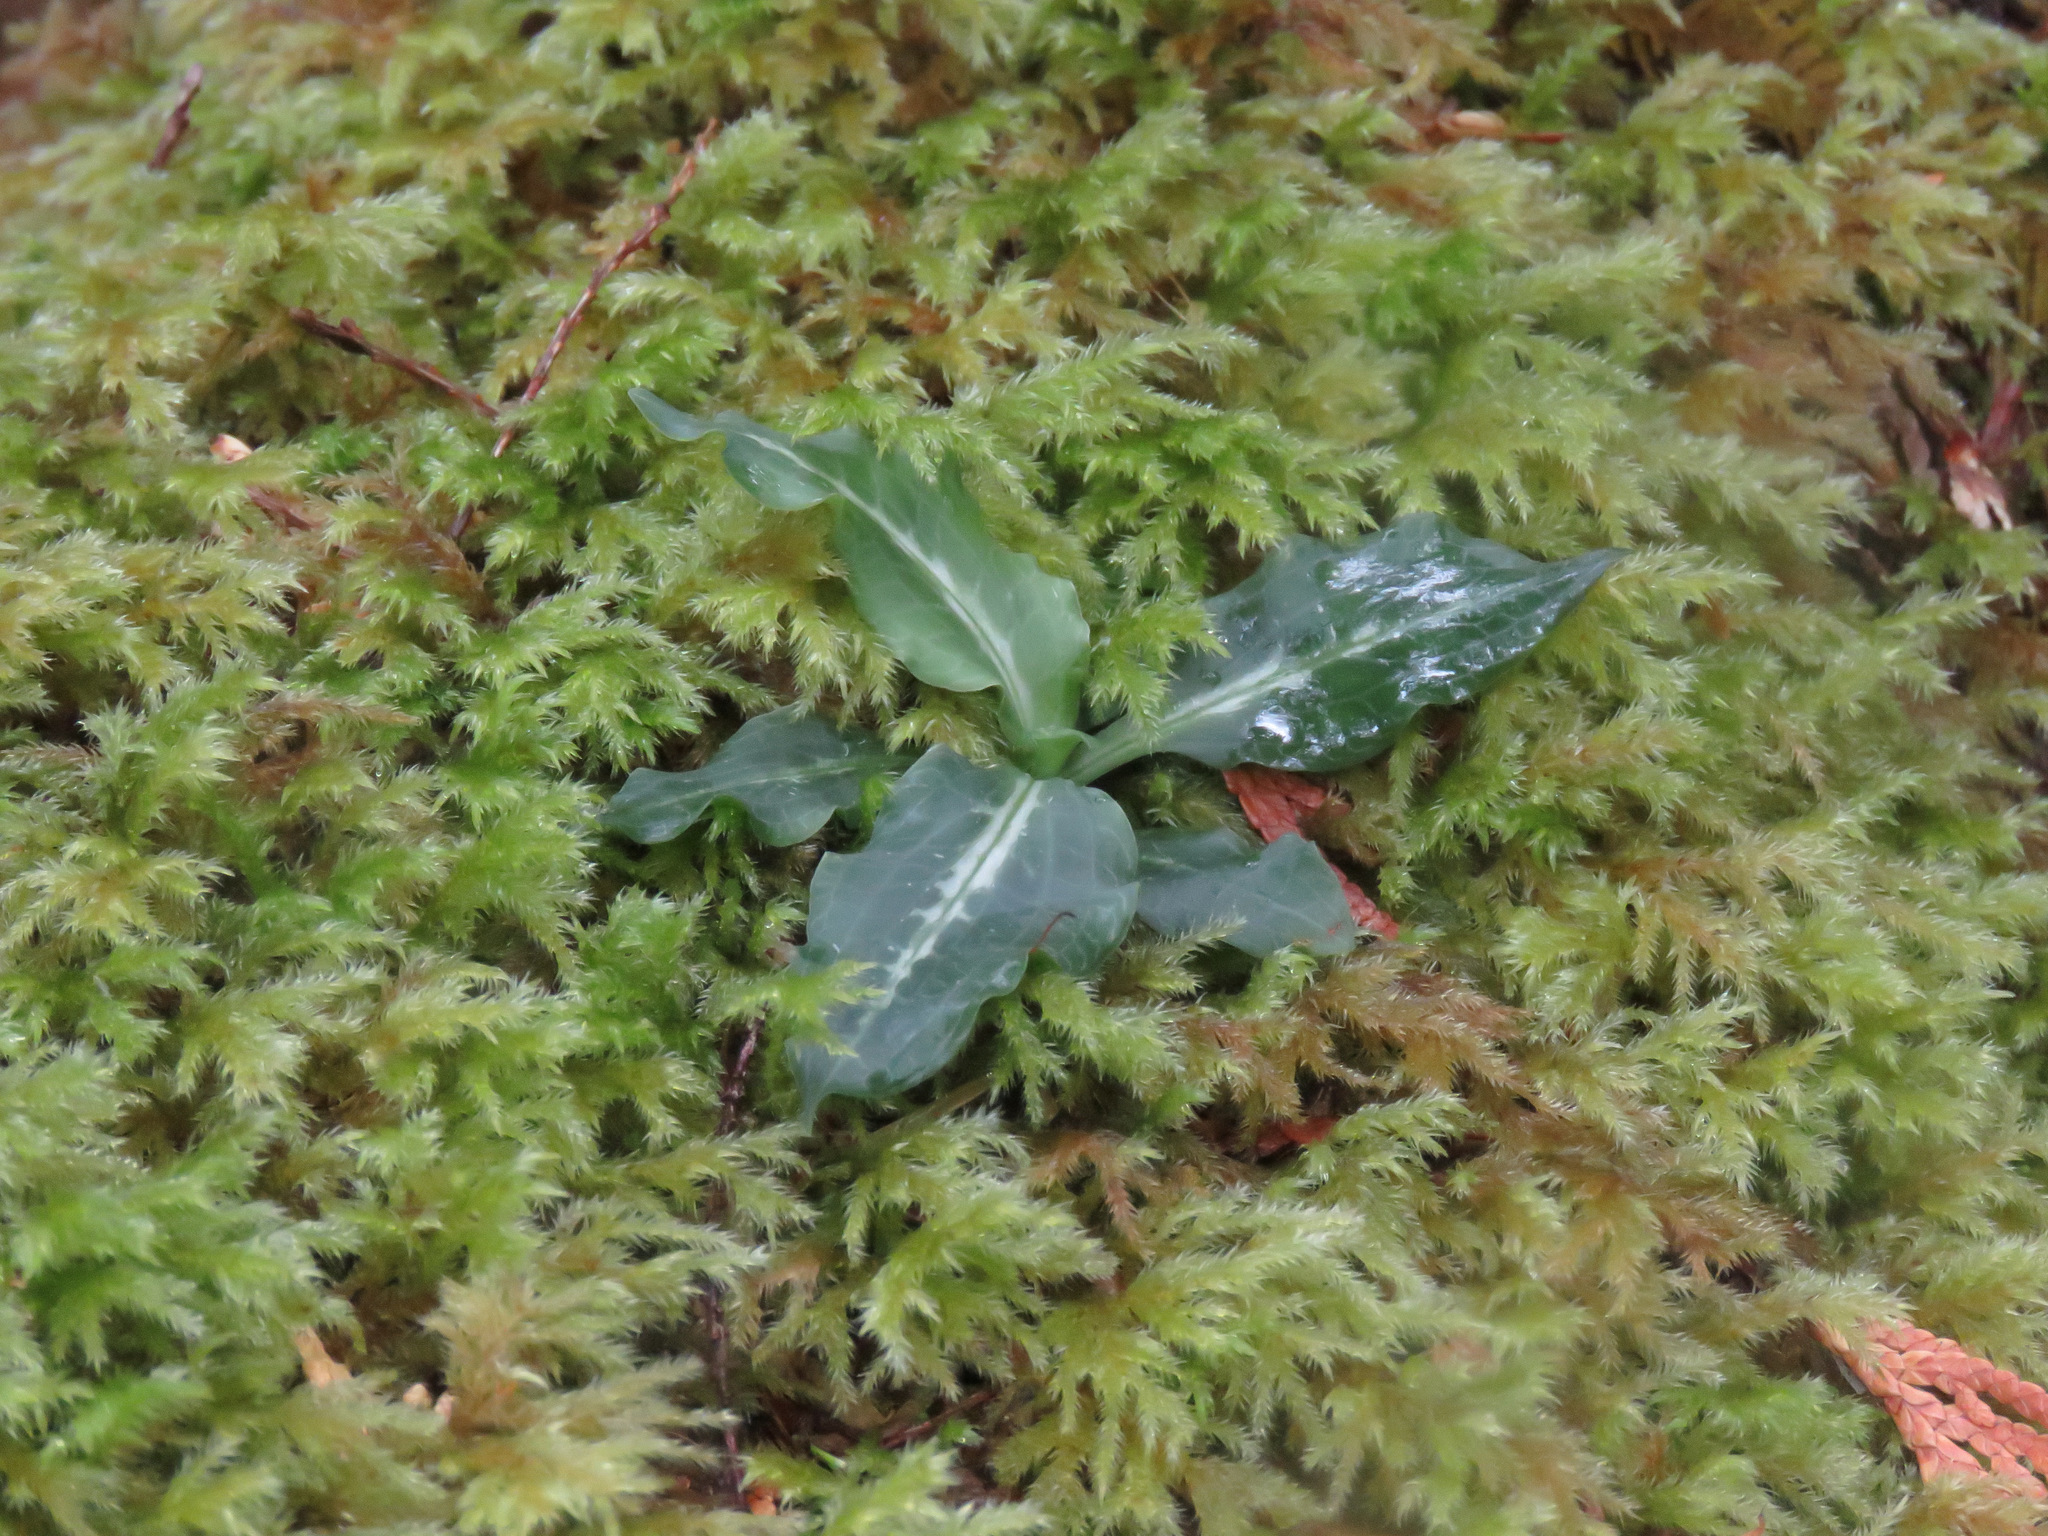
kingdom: Plantae
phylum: Tracheophyta
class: Liliopsida
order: Asparagales
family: Orchidaceae
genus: Goodyera
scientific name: Goodyera oblongifolia
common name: Giant rattlesnake-plantain
